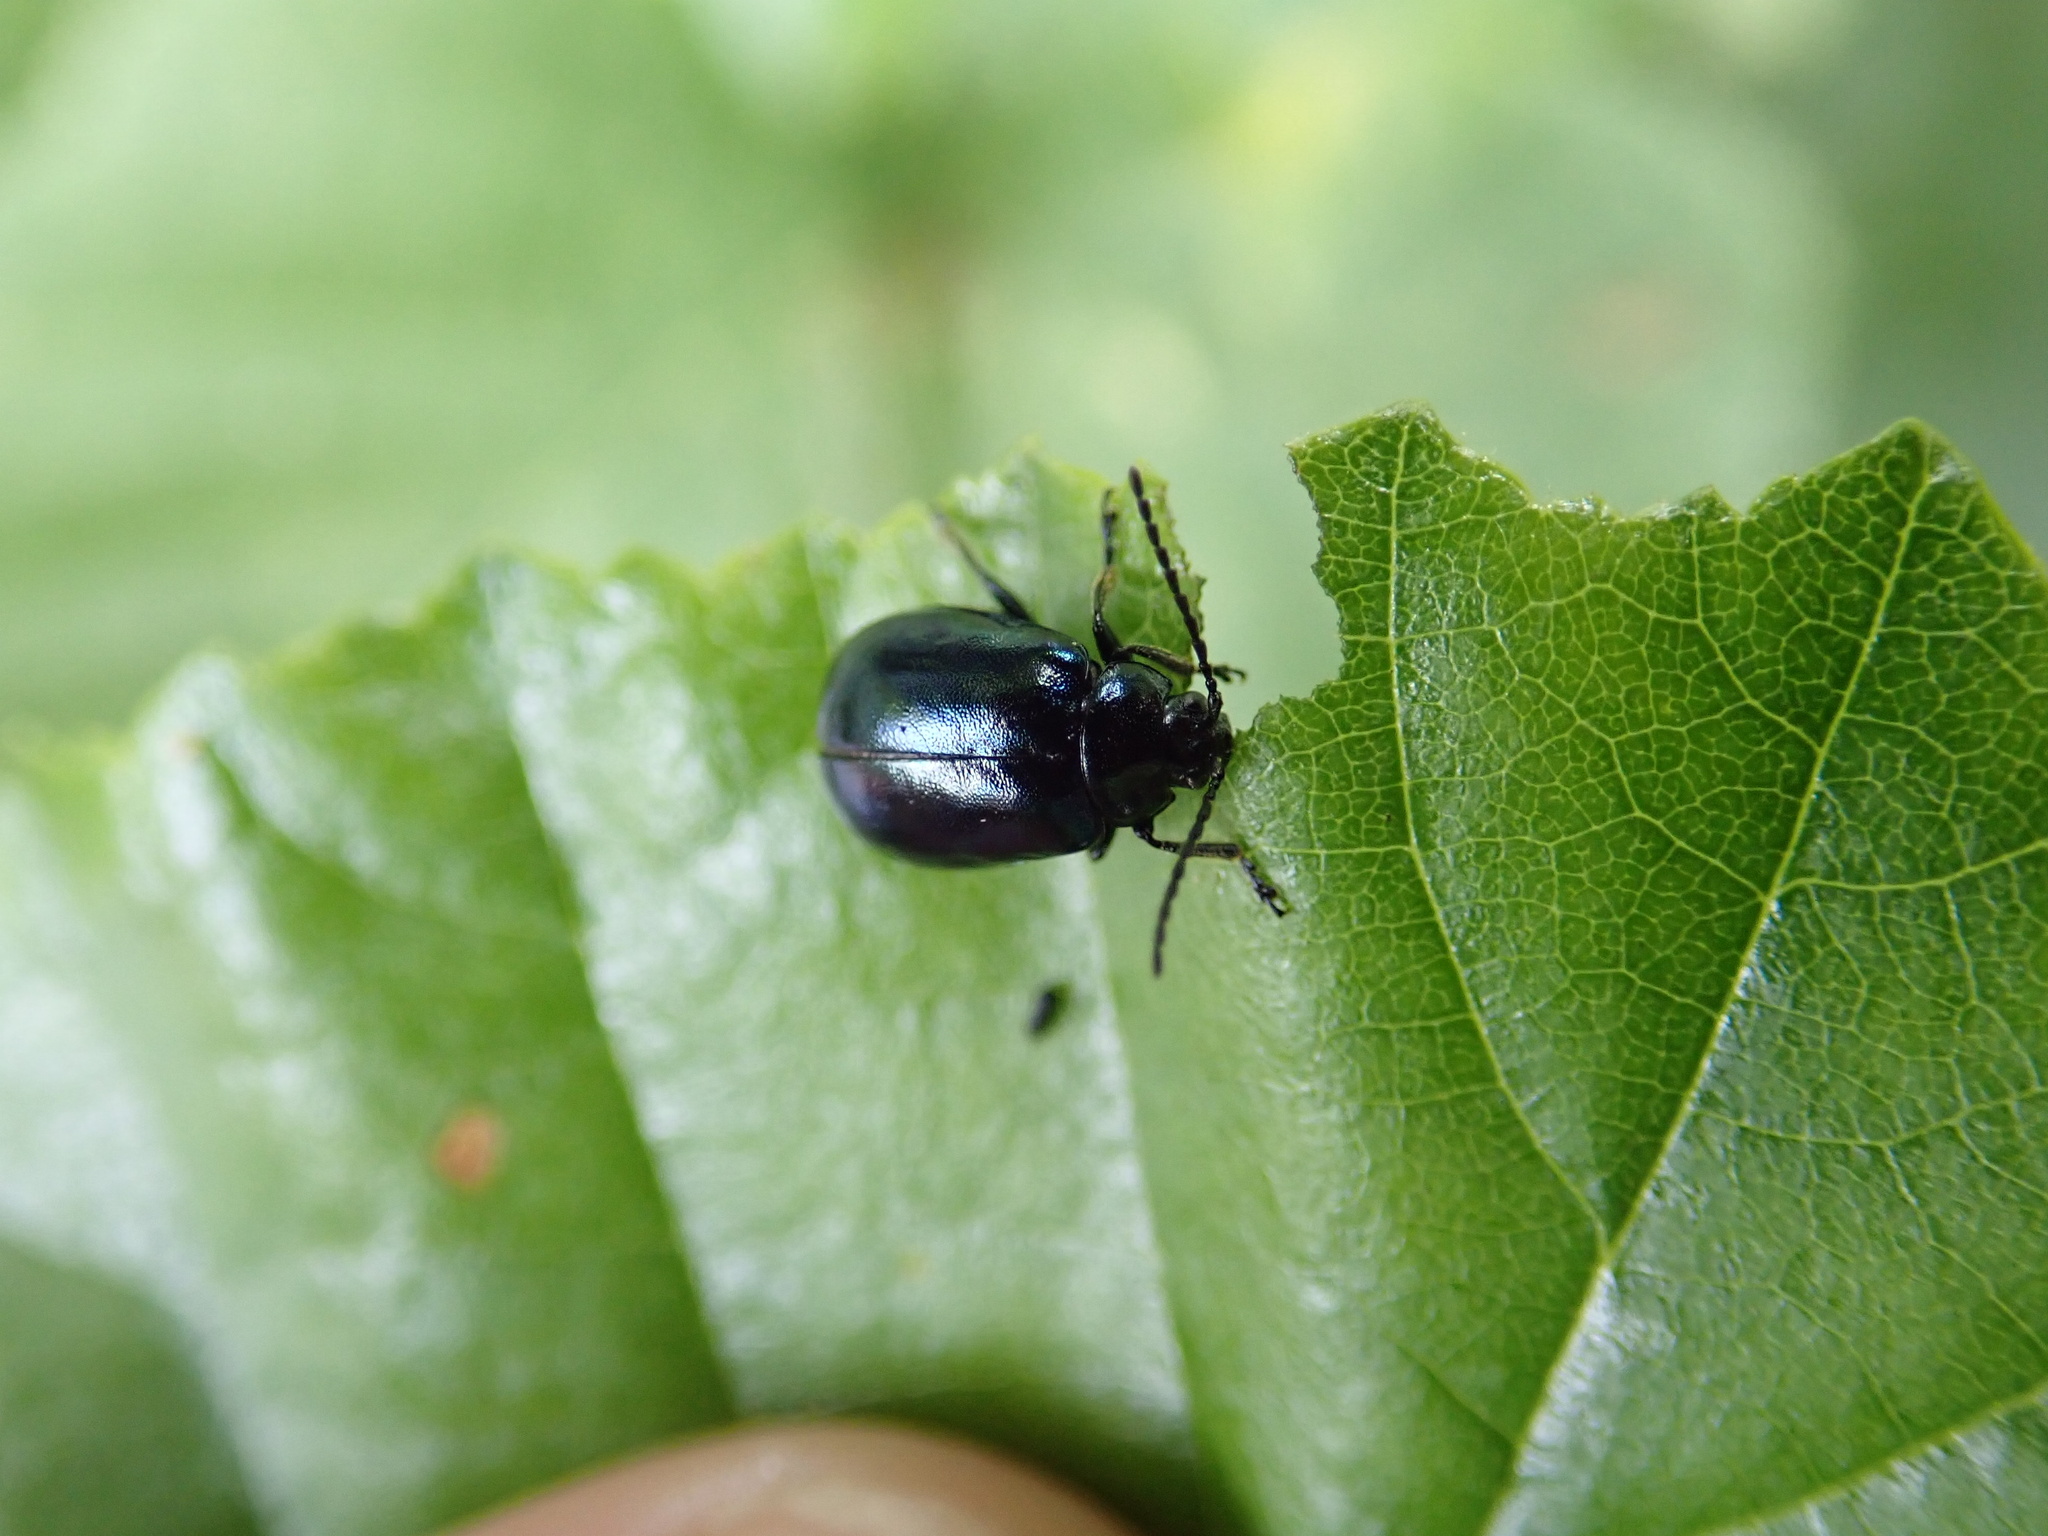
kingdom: Animalia
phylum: Arthropoda
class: Insecta
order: Coleoptera
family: Chrysomelidae
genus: Agelastica
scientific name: Agelastica alni
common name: Alder leaf beetle
